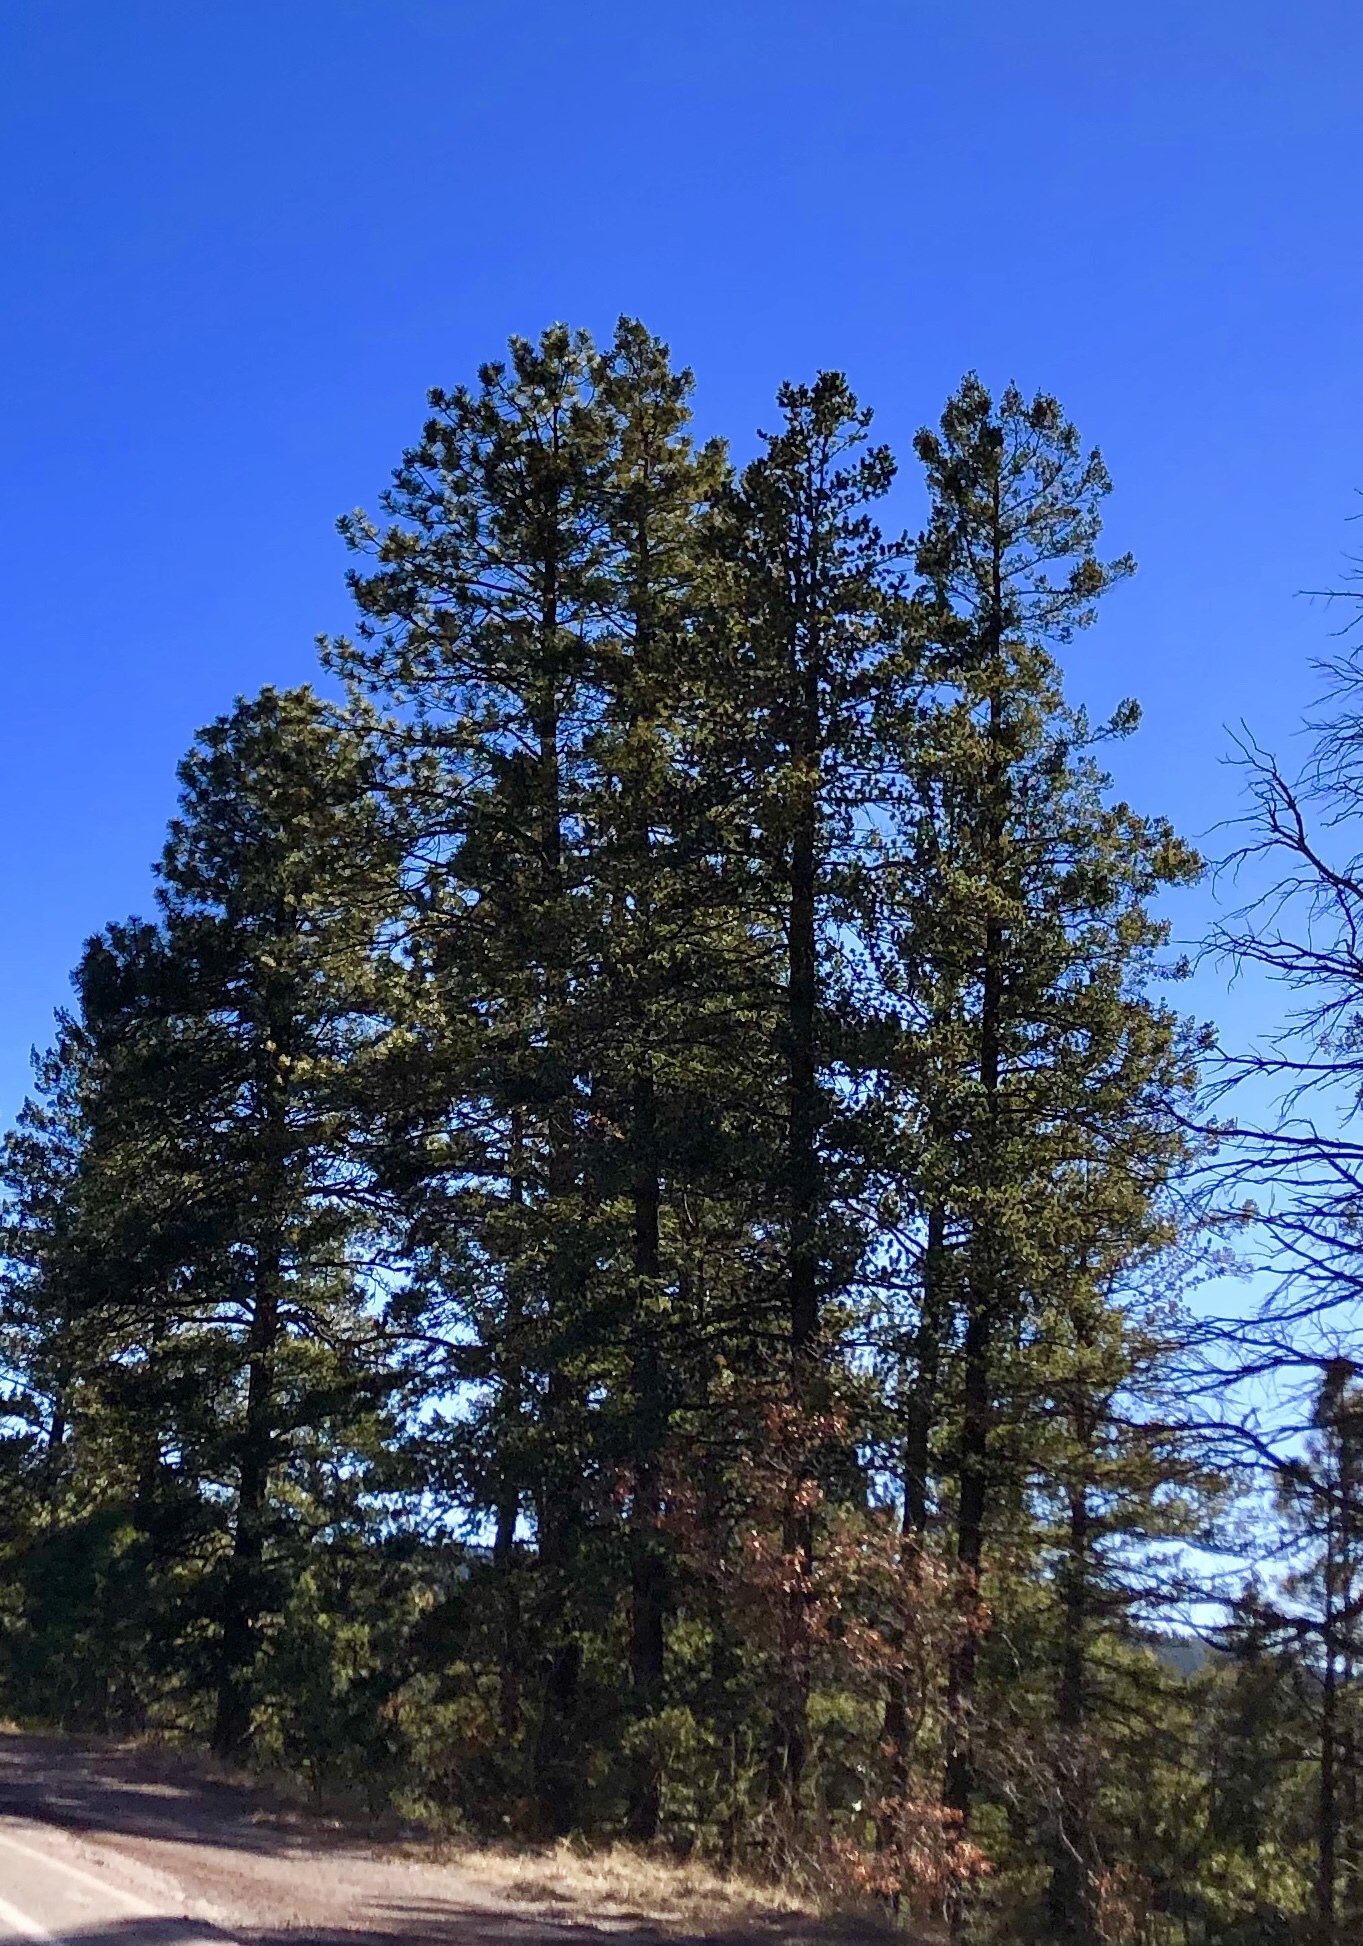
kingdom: Plantae
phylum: Tracheophyta
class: Pinopsida
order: Pinales
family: Pinaceae
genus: Pinus
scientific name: Pinus ponderosa
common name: Western yellow-pine
